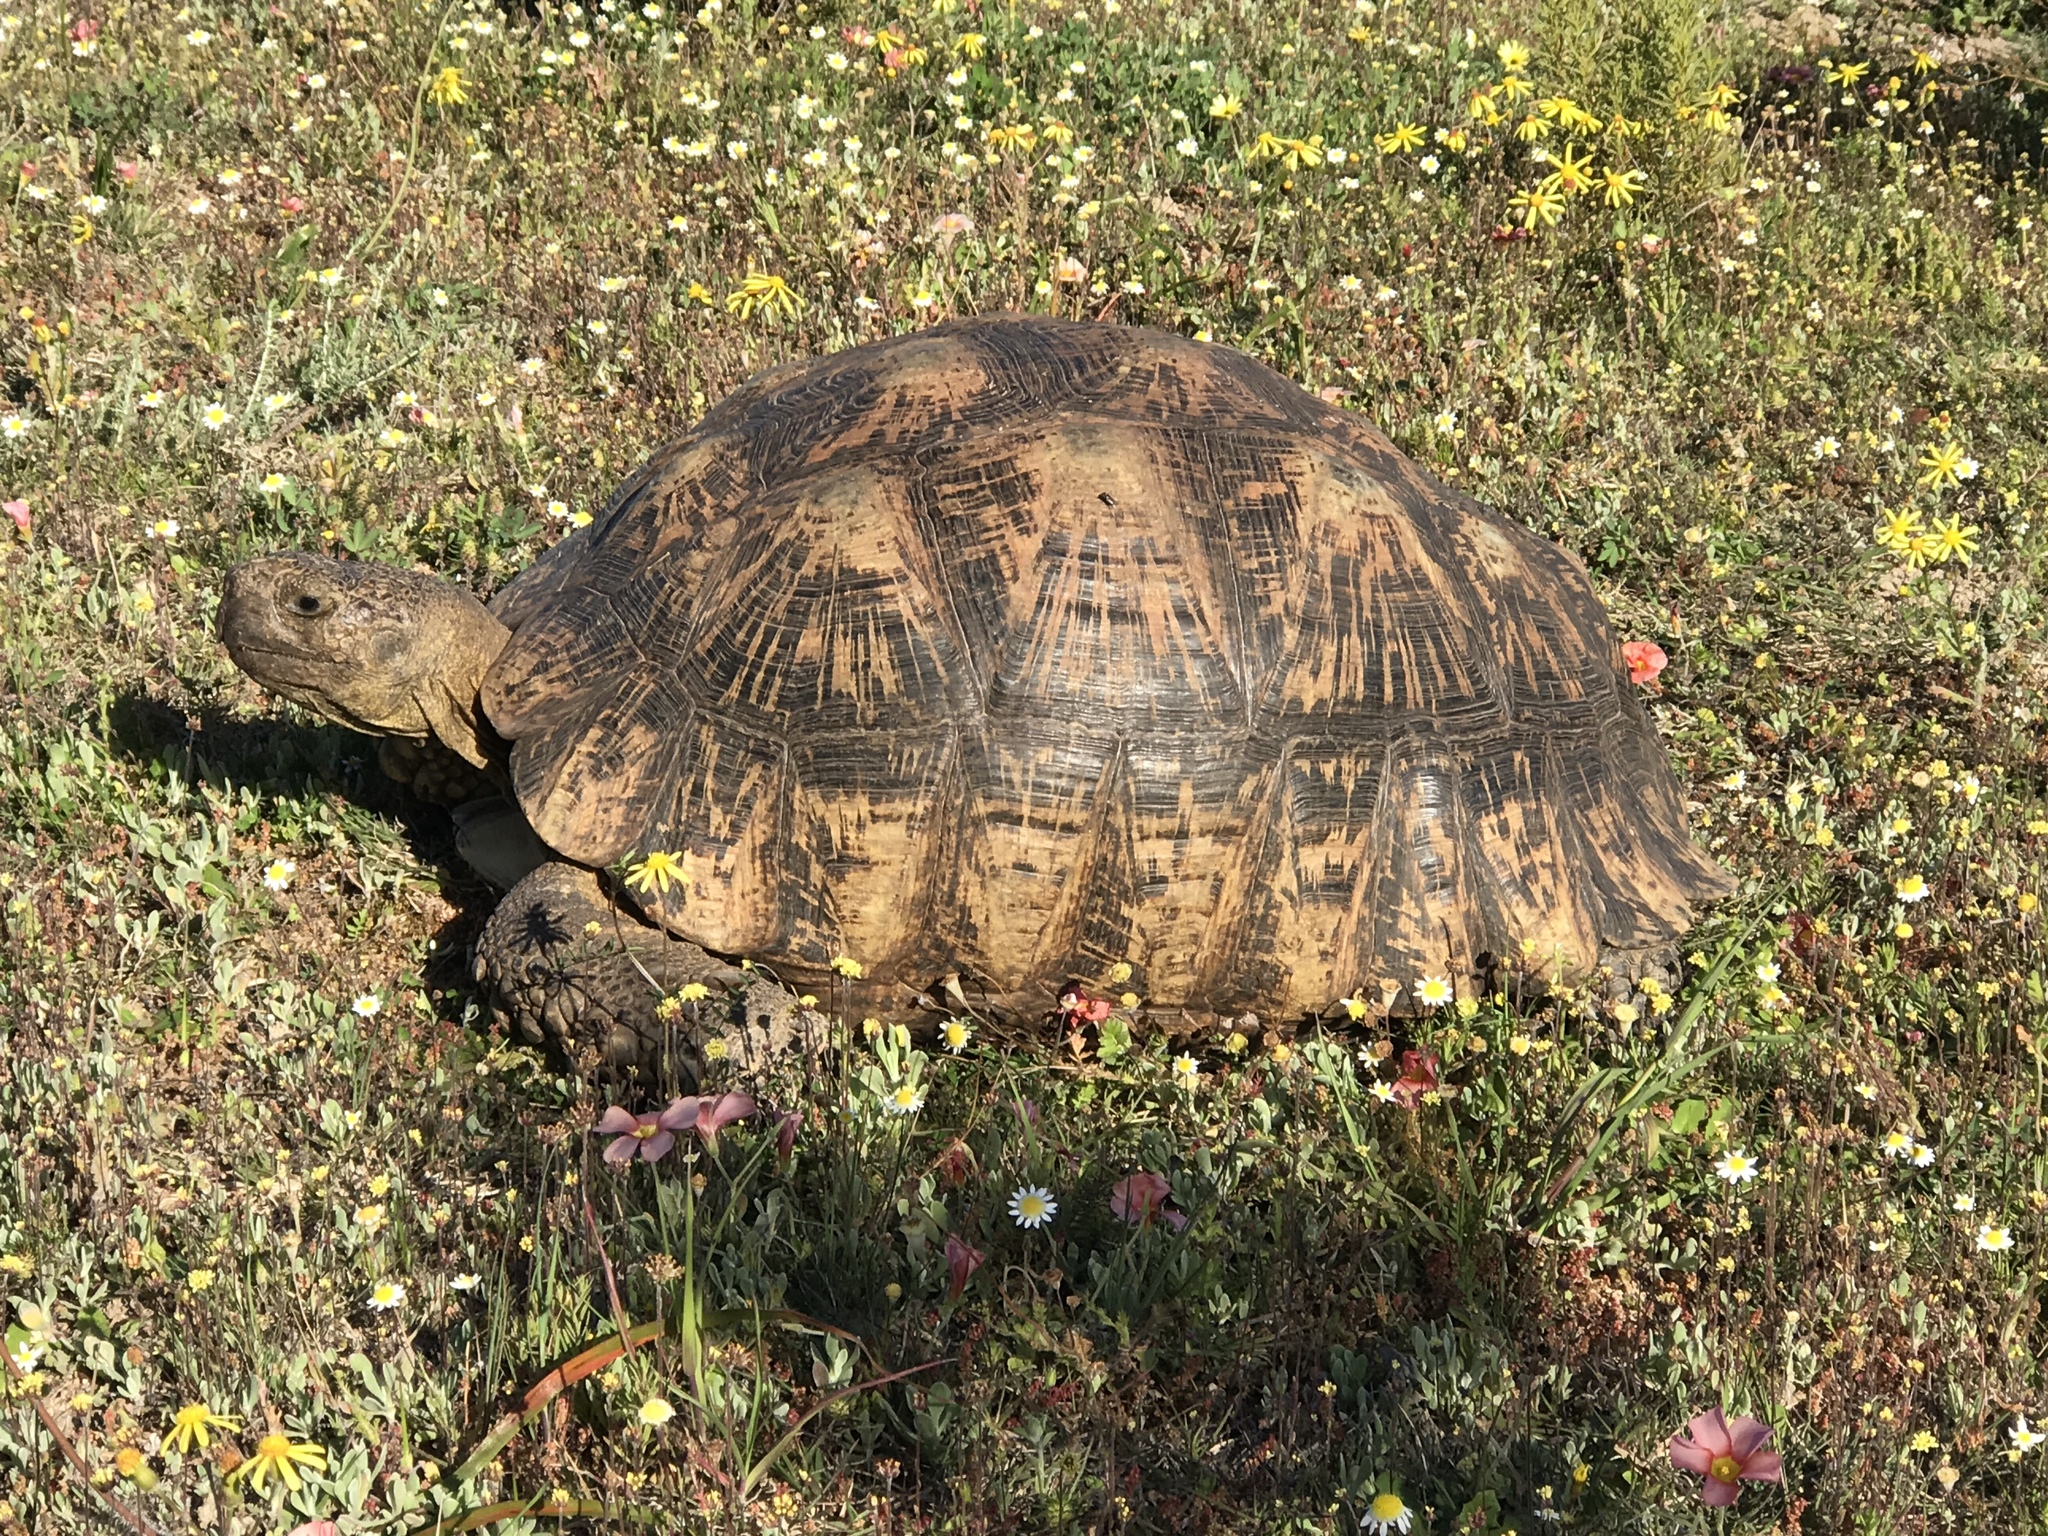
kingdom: Animalia
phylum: Chordata
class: Testudines
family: Testudinidae
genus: Stigmochelys
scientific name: Stigmochelys pardalis
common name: Leopard tortoise
